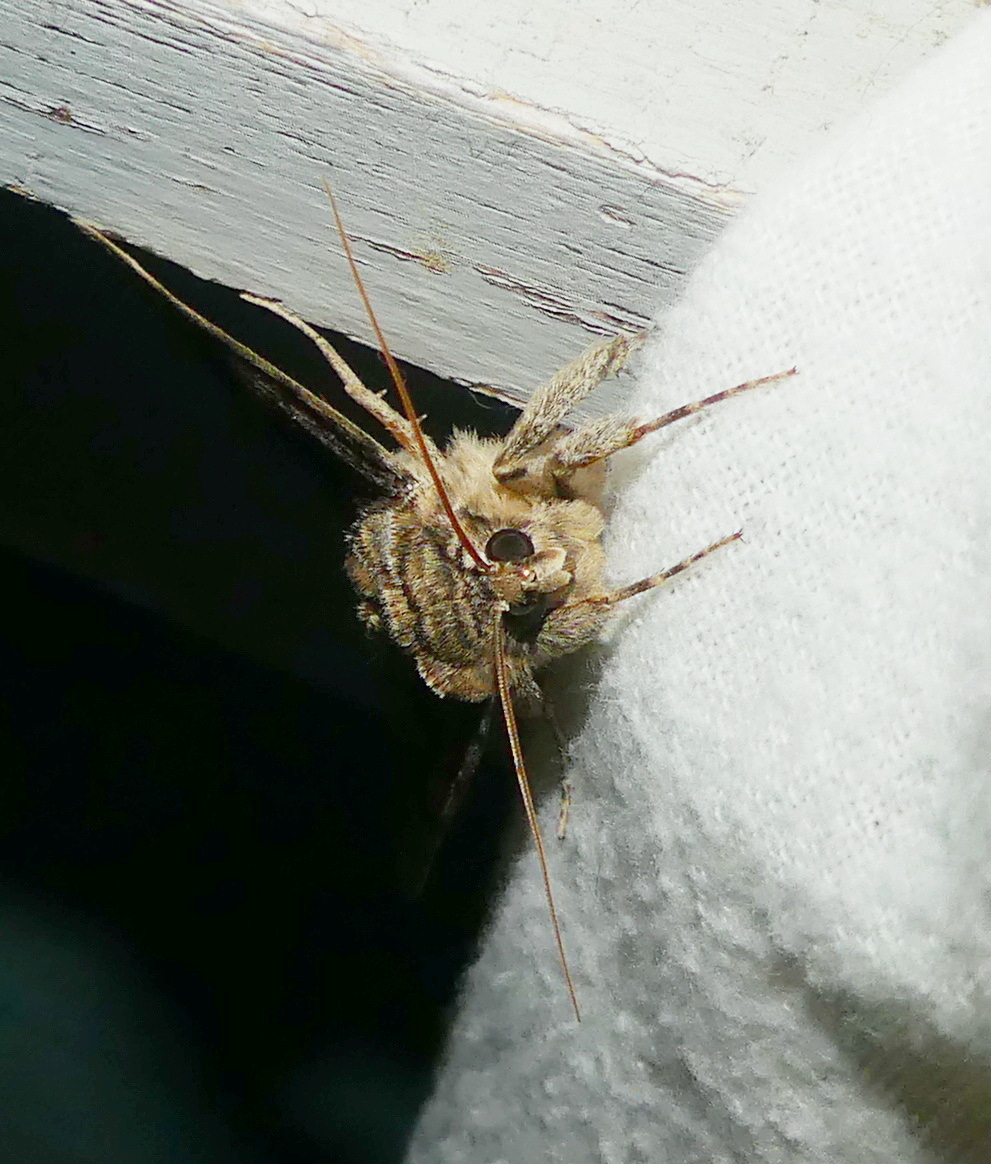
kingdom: Animalia
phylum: Arthropoda
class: Insecta
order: Lepidoptera
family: Erebidae
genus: Catocala
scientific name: Catocala amatrix
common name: Sweetheart underwing
